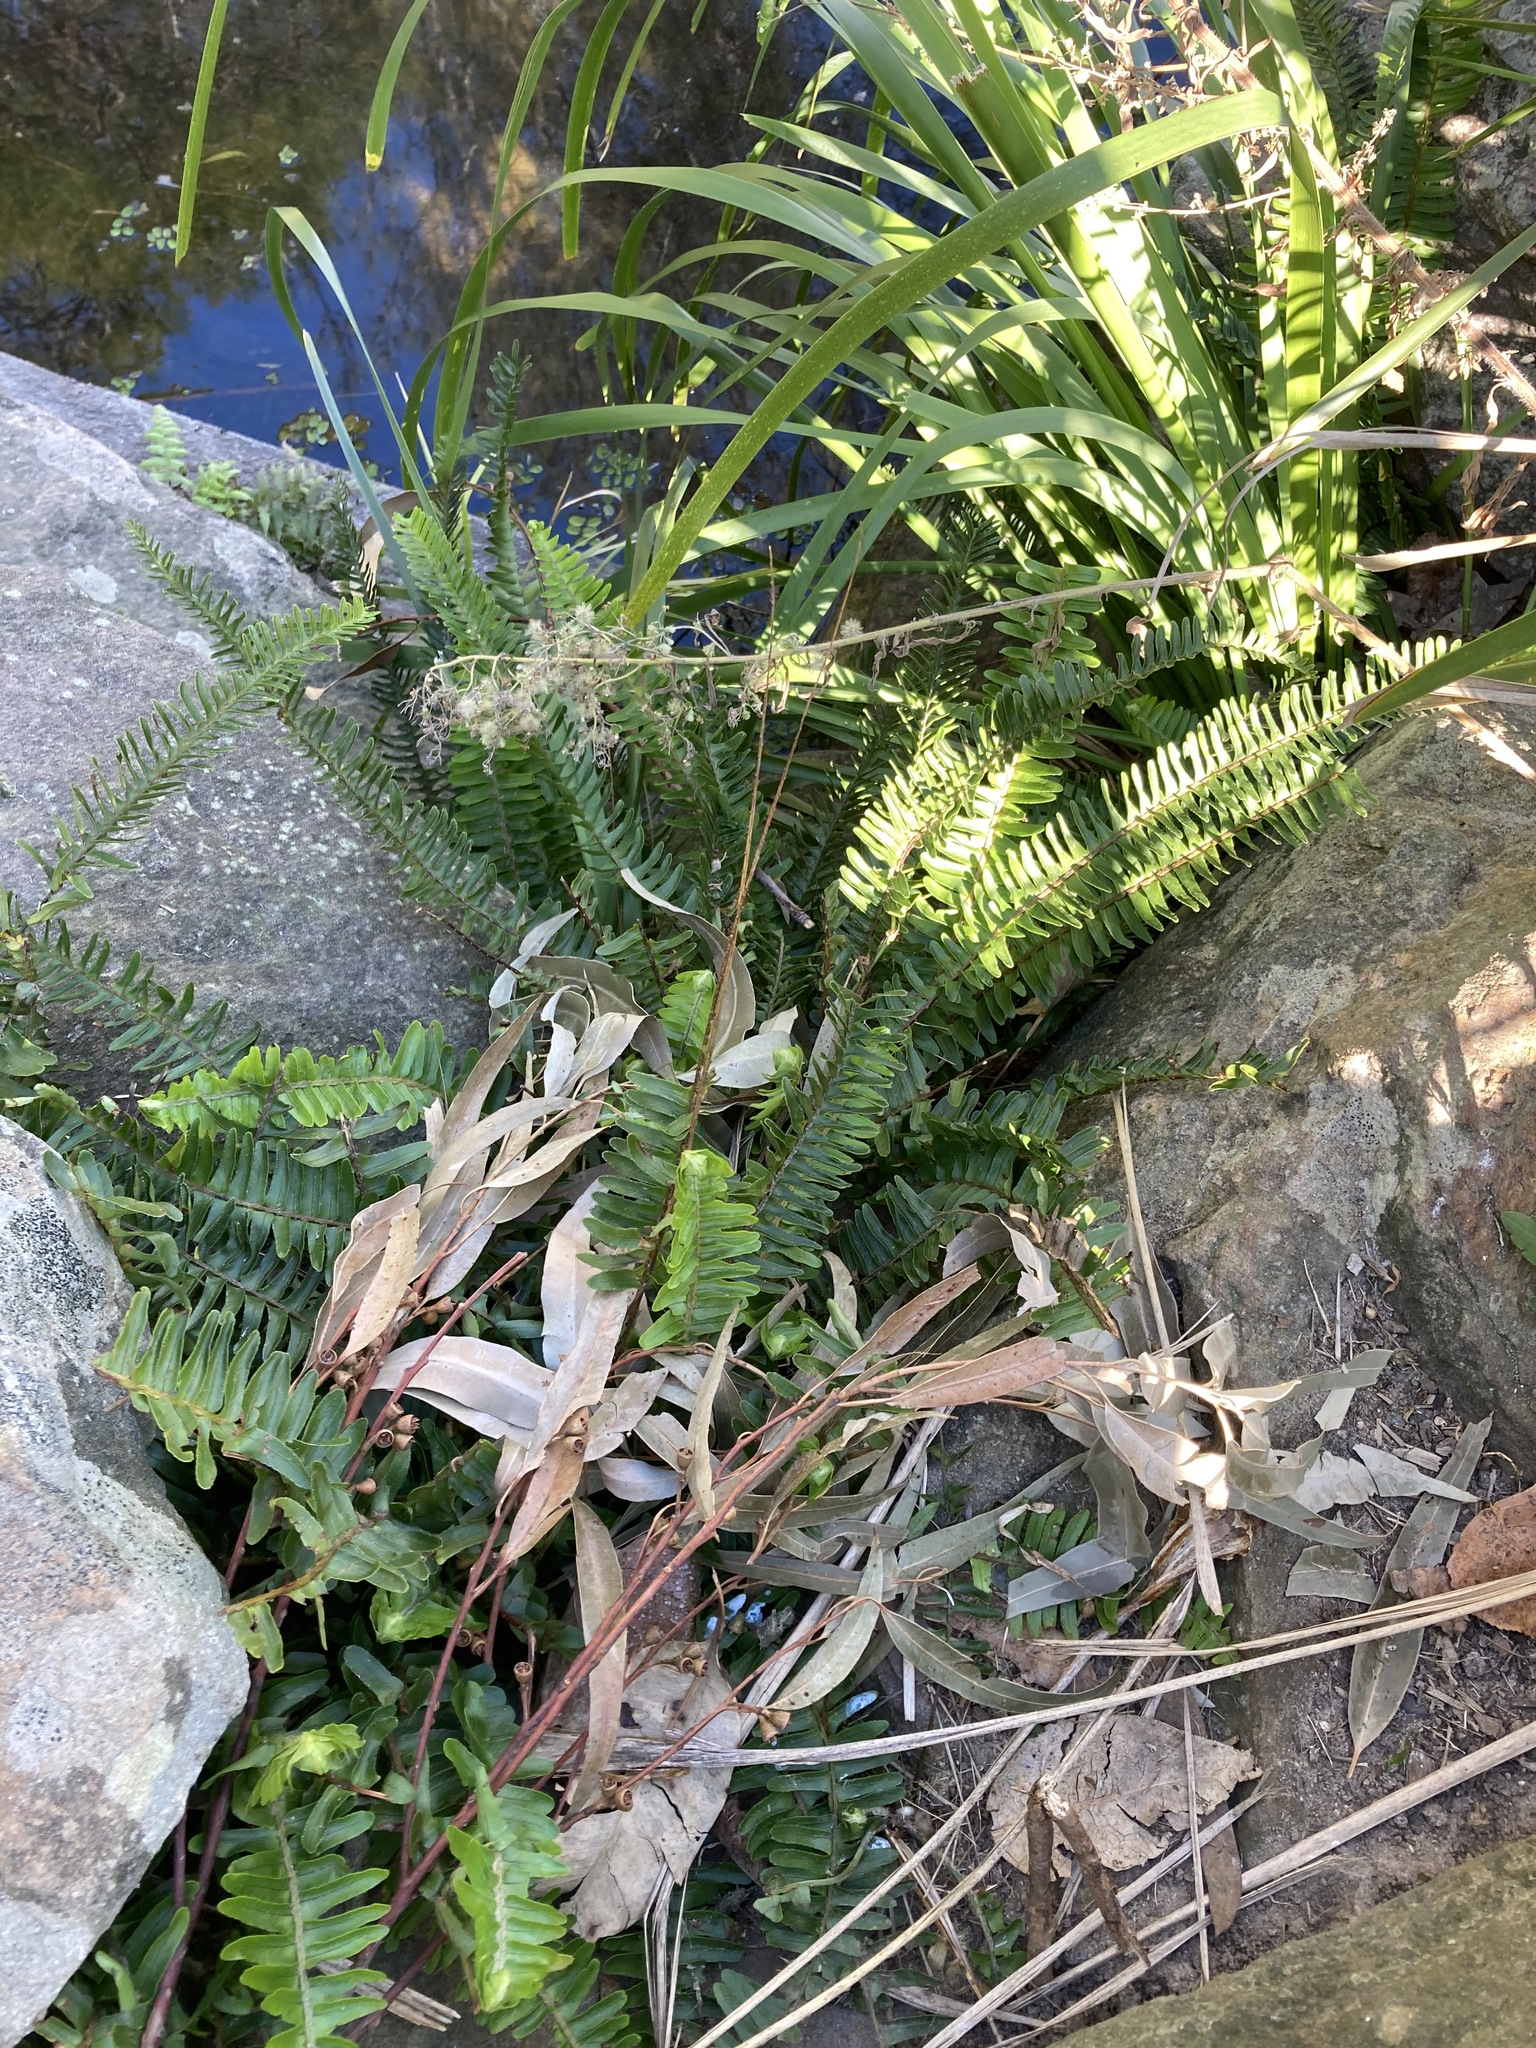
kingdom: Plantae
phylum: Tracheophyta
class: Polypodiopsida
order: Polypodiales
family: Nephrolepidaceae
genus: Nephrolepis
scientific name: Nephrolepis cordifolia
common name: Narrow swordfern
